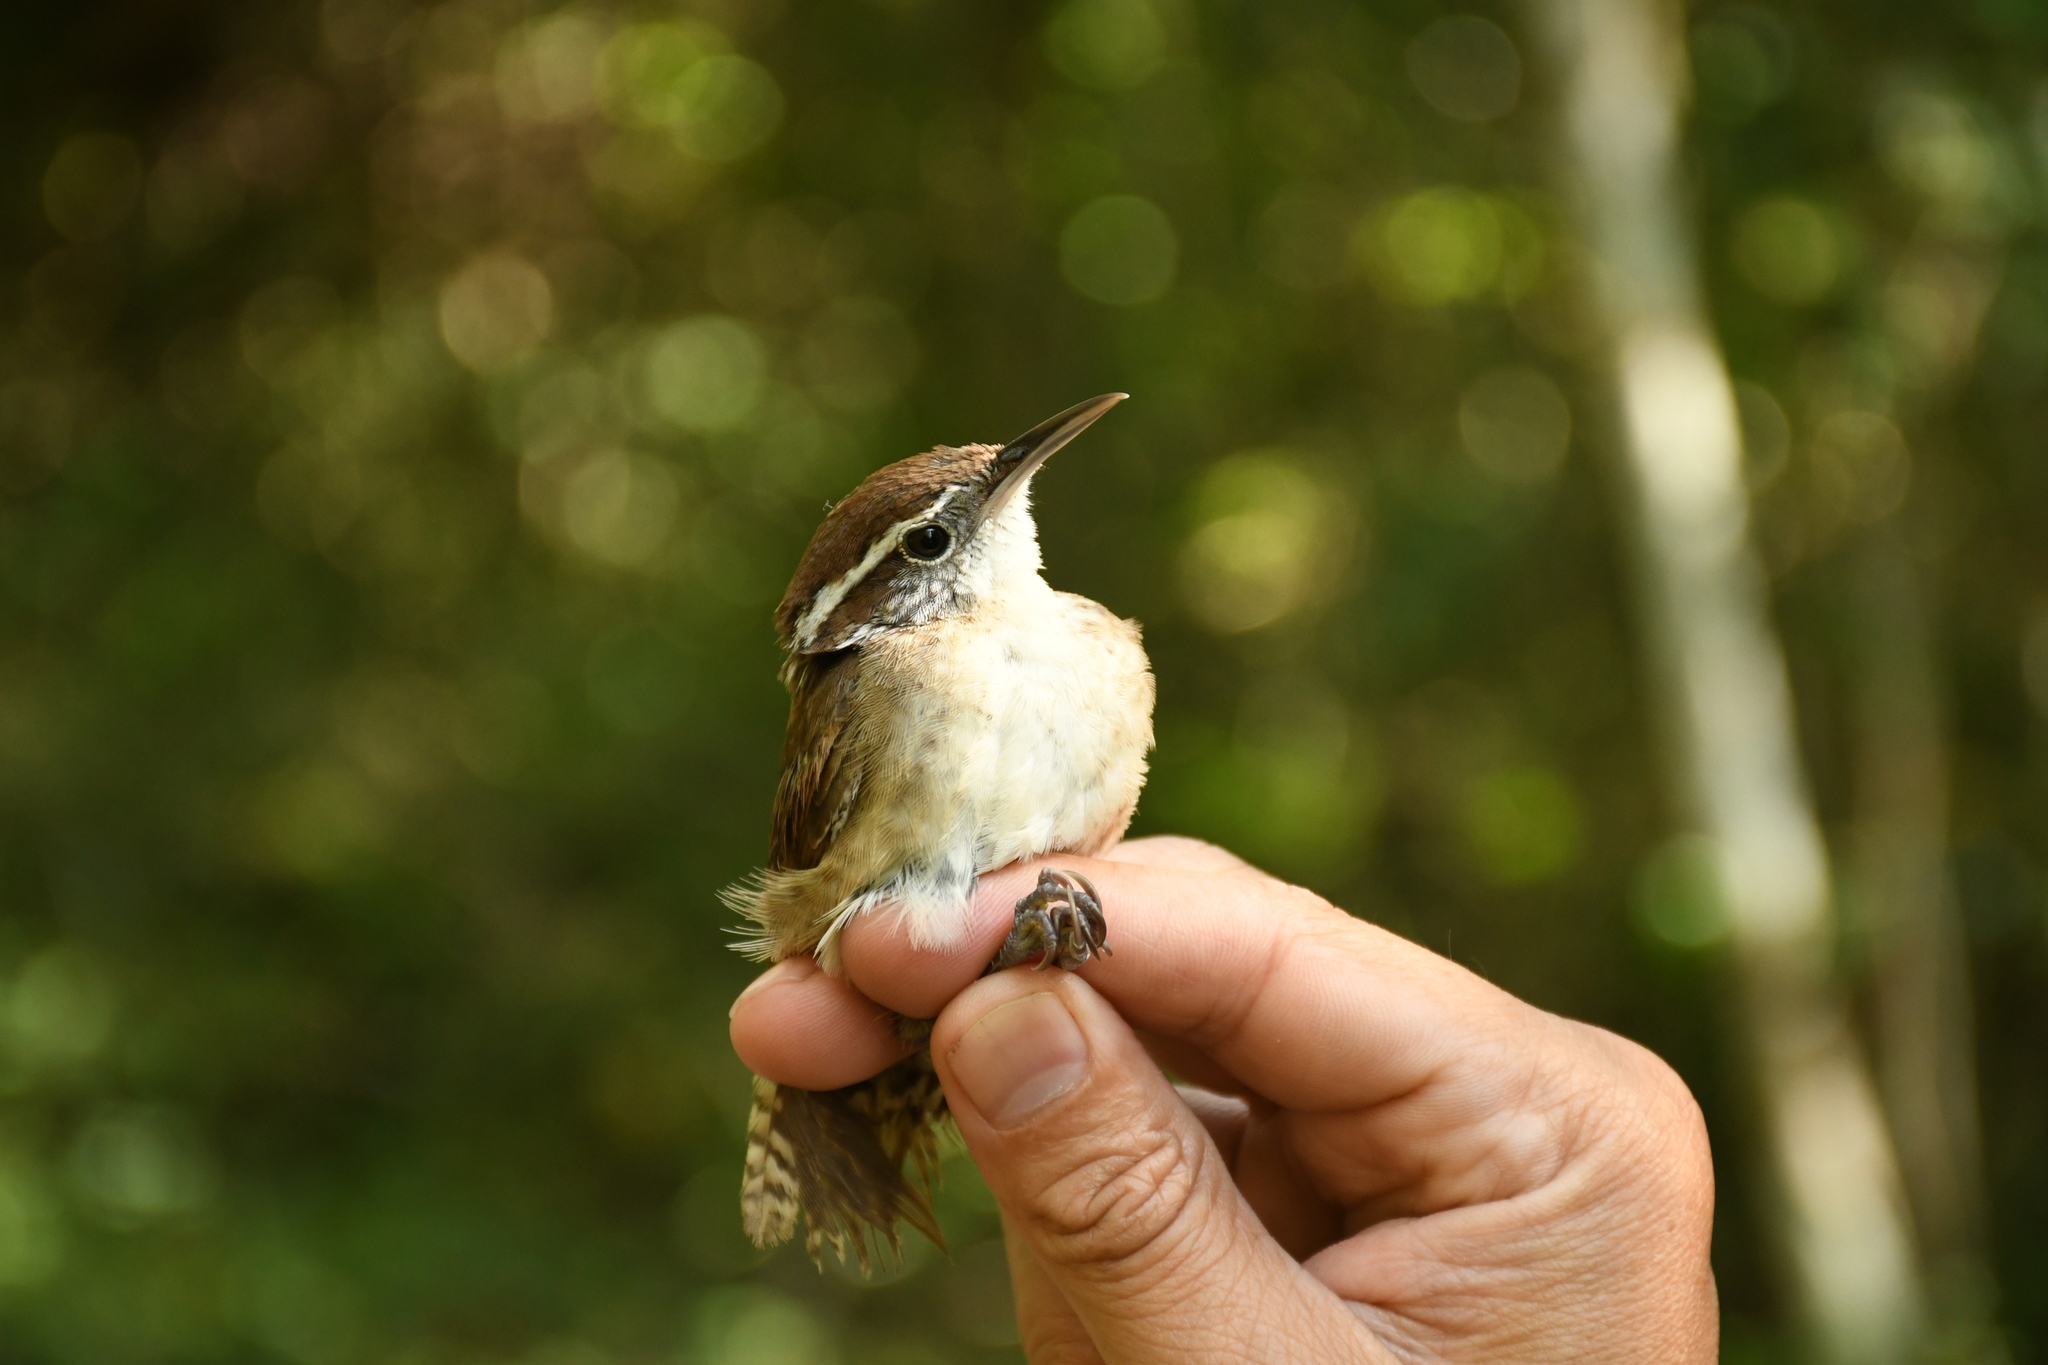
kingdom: Animalia
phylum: Chordata
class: Aves
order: Passeriformes
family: Troglodytidae
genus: Thryothorus
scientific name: Thryothorus ludovicianus
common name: Carolina wren
